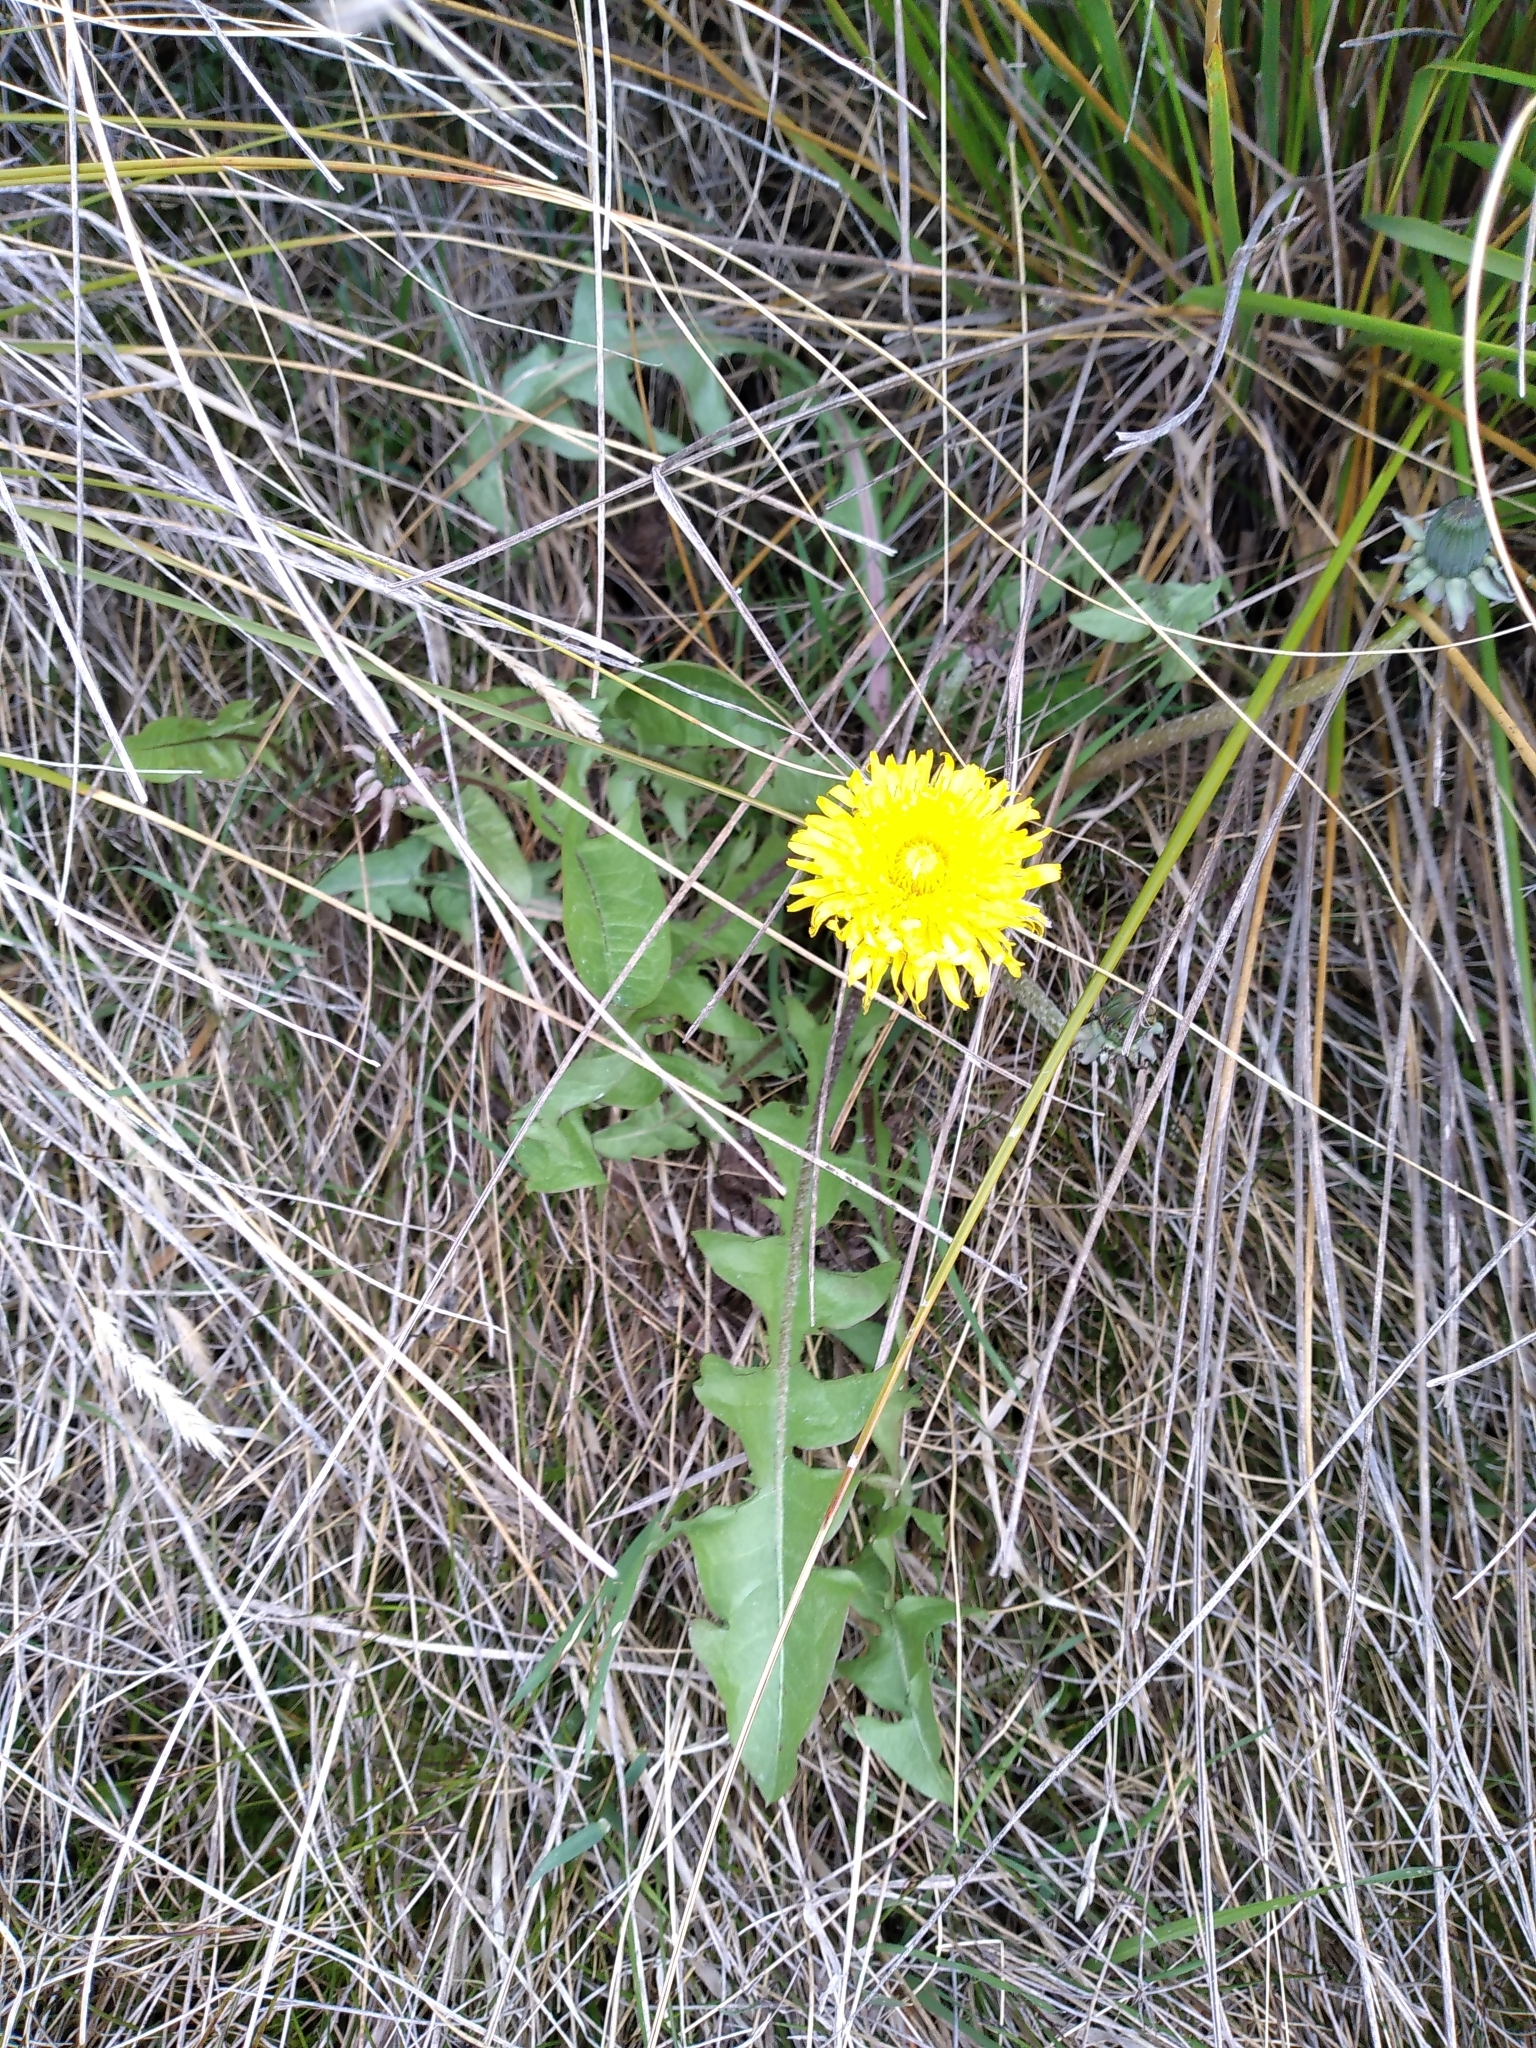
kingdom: Plantae
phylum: Tracheophyta
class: Magnoliopsida
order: Asterales
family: Asteraceae
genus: Taraxacum
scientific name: Taraxacum officinale
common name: Common dandelion
